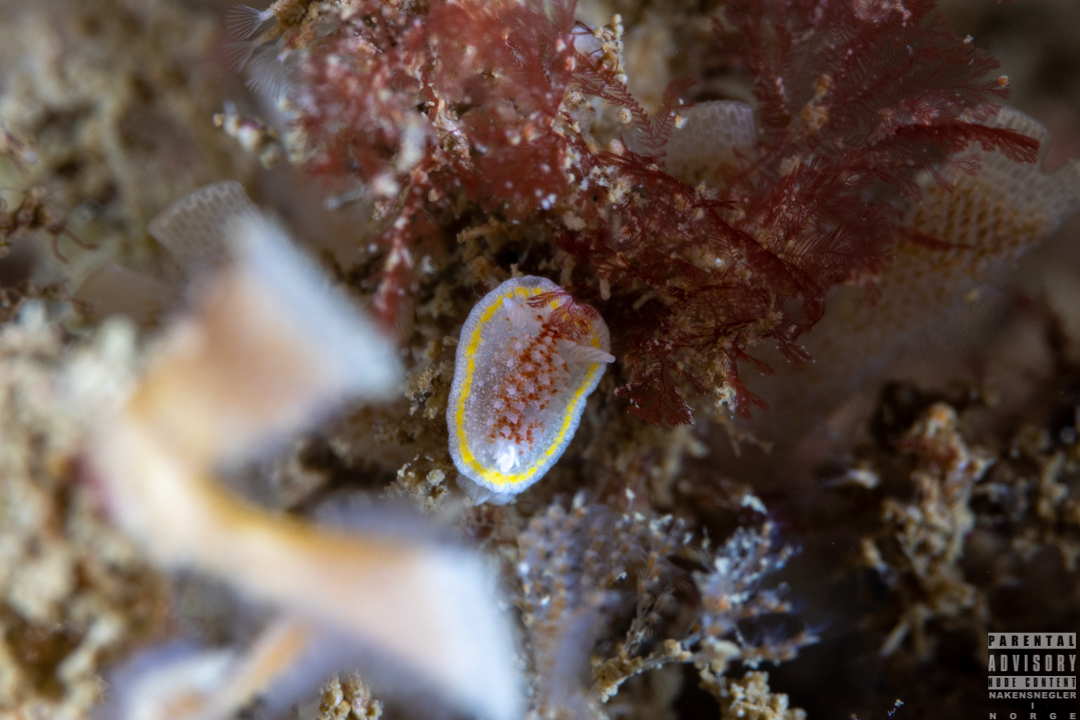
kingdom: Animalia
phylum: Mollusca
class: Gastropoda
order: Nudibranchia
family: Calycidorididae
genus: Diaphorodoris
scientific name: Diaphorodoris luteocincta
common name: Fried egg nudibranch
